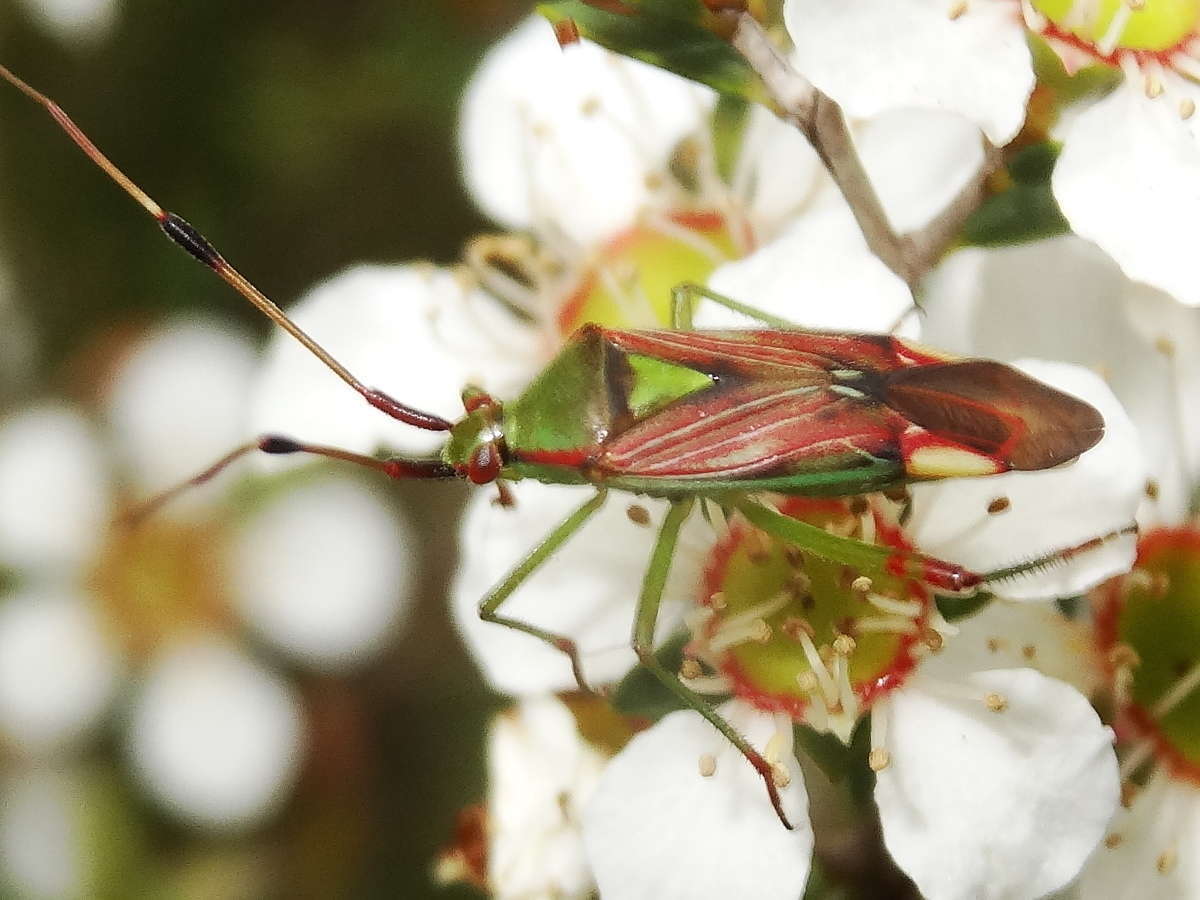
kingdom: Animalia
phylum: Arthropoda
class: Insecta
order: Hemiptera
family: Miridae
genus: Pseudopantilius
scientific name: Pseudopantilius australis
